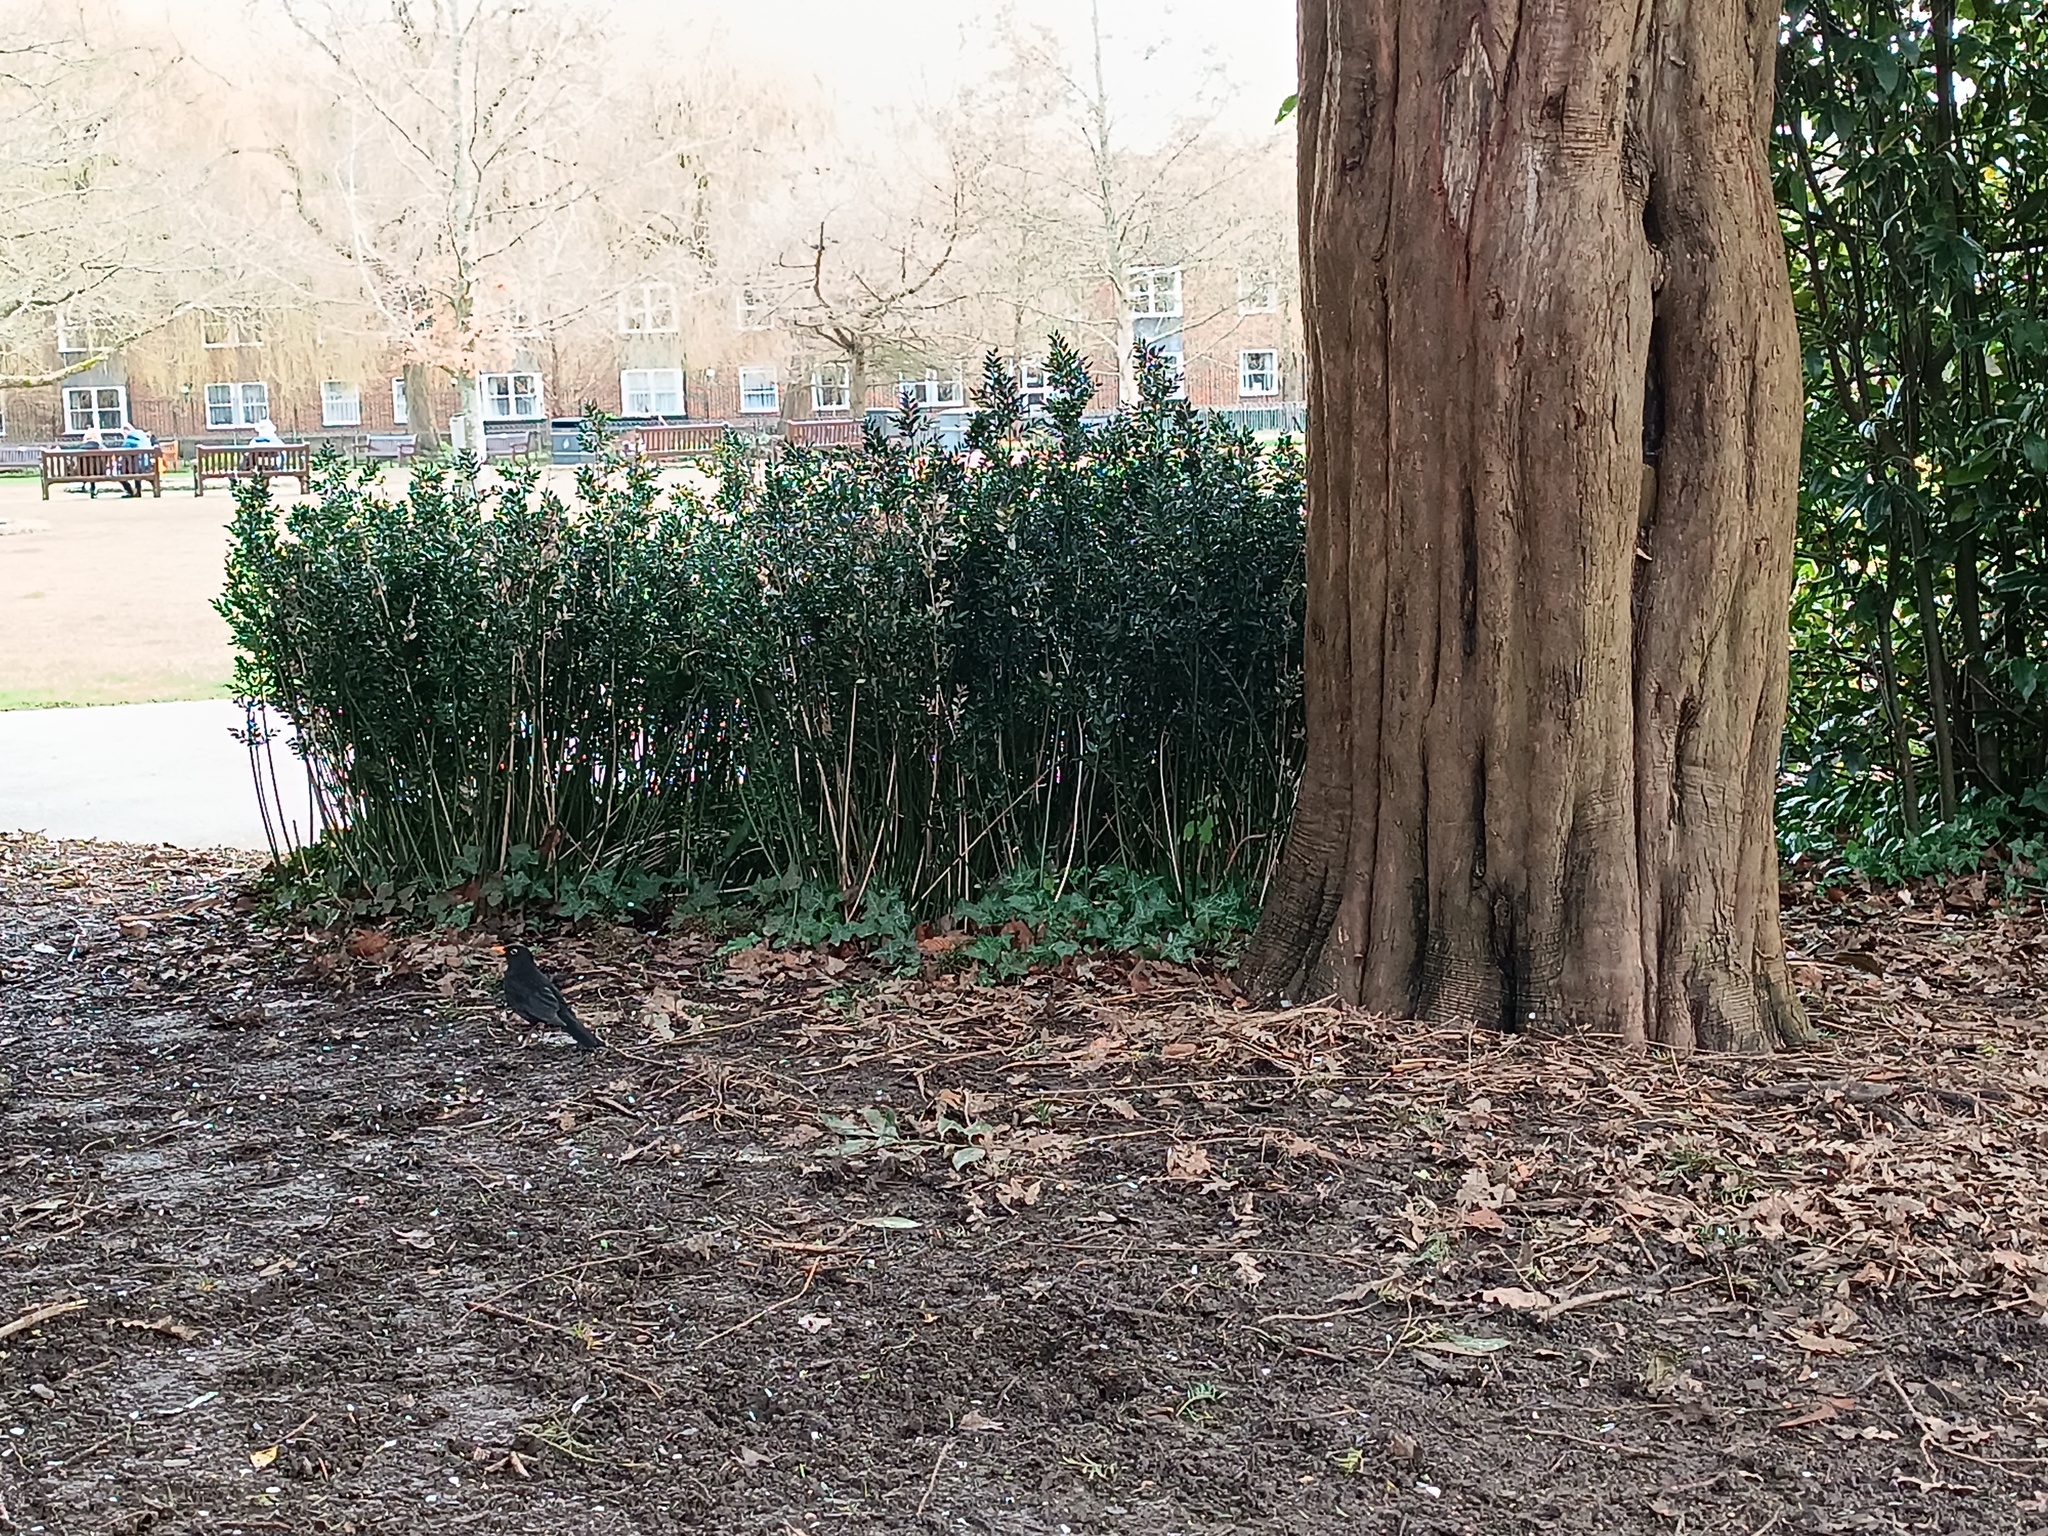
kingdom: Animalia
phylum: Chordata
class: Aves
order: Passeriformes
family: Turdidae
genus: Turdus
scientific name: Turdus merula
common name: Common blackbird
